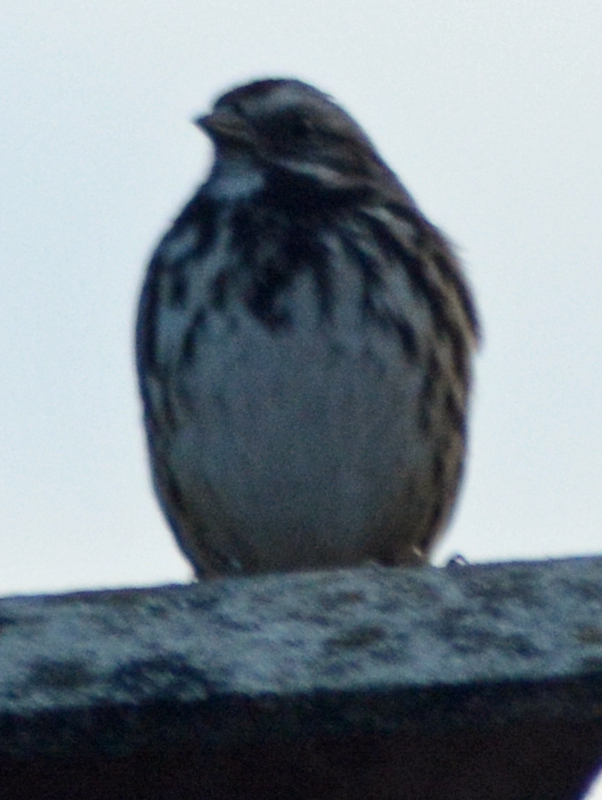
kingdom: Animalia
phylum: Chordata
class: Aves
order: Passeriformes
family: Passerellidae
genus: Melospiza
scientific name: Melospiza melodia
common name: Song sparrow
